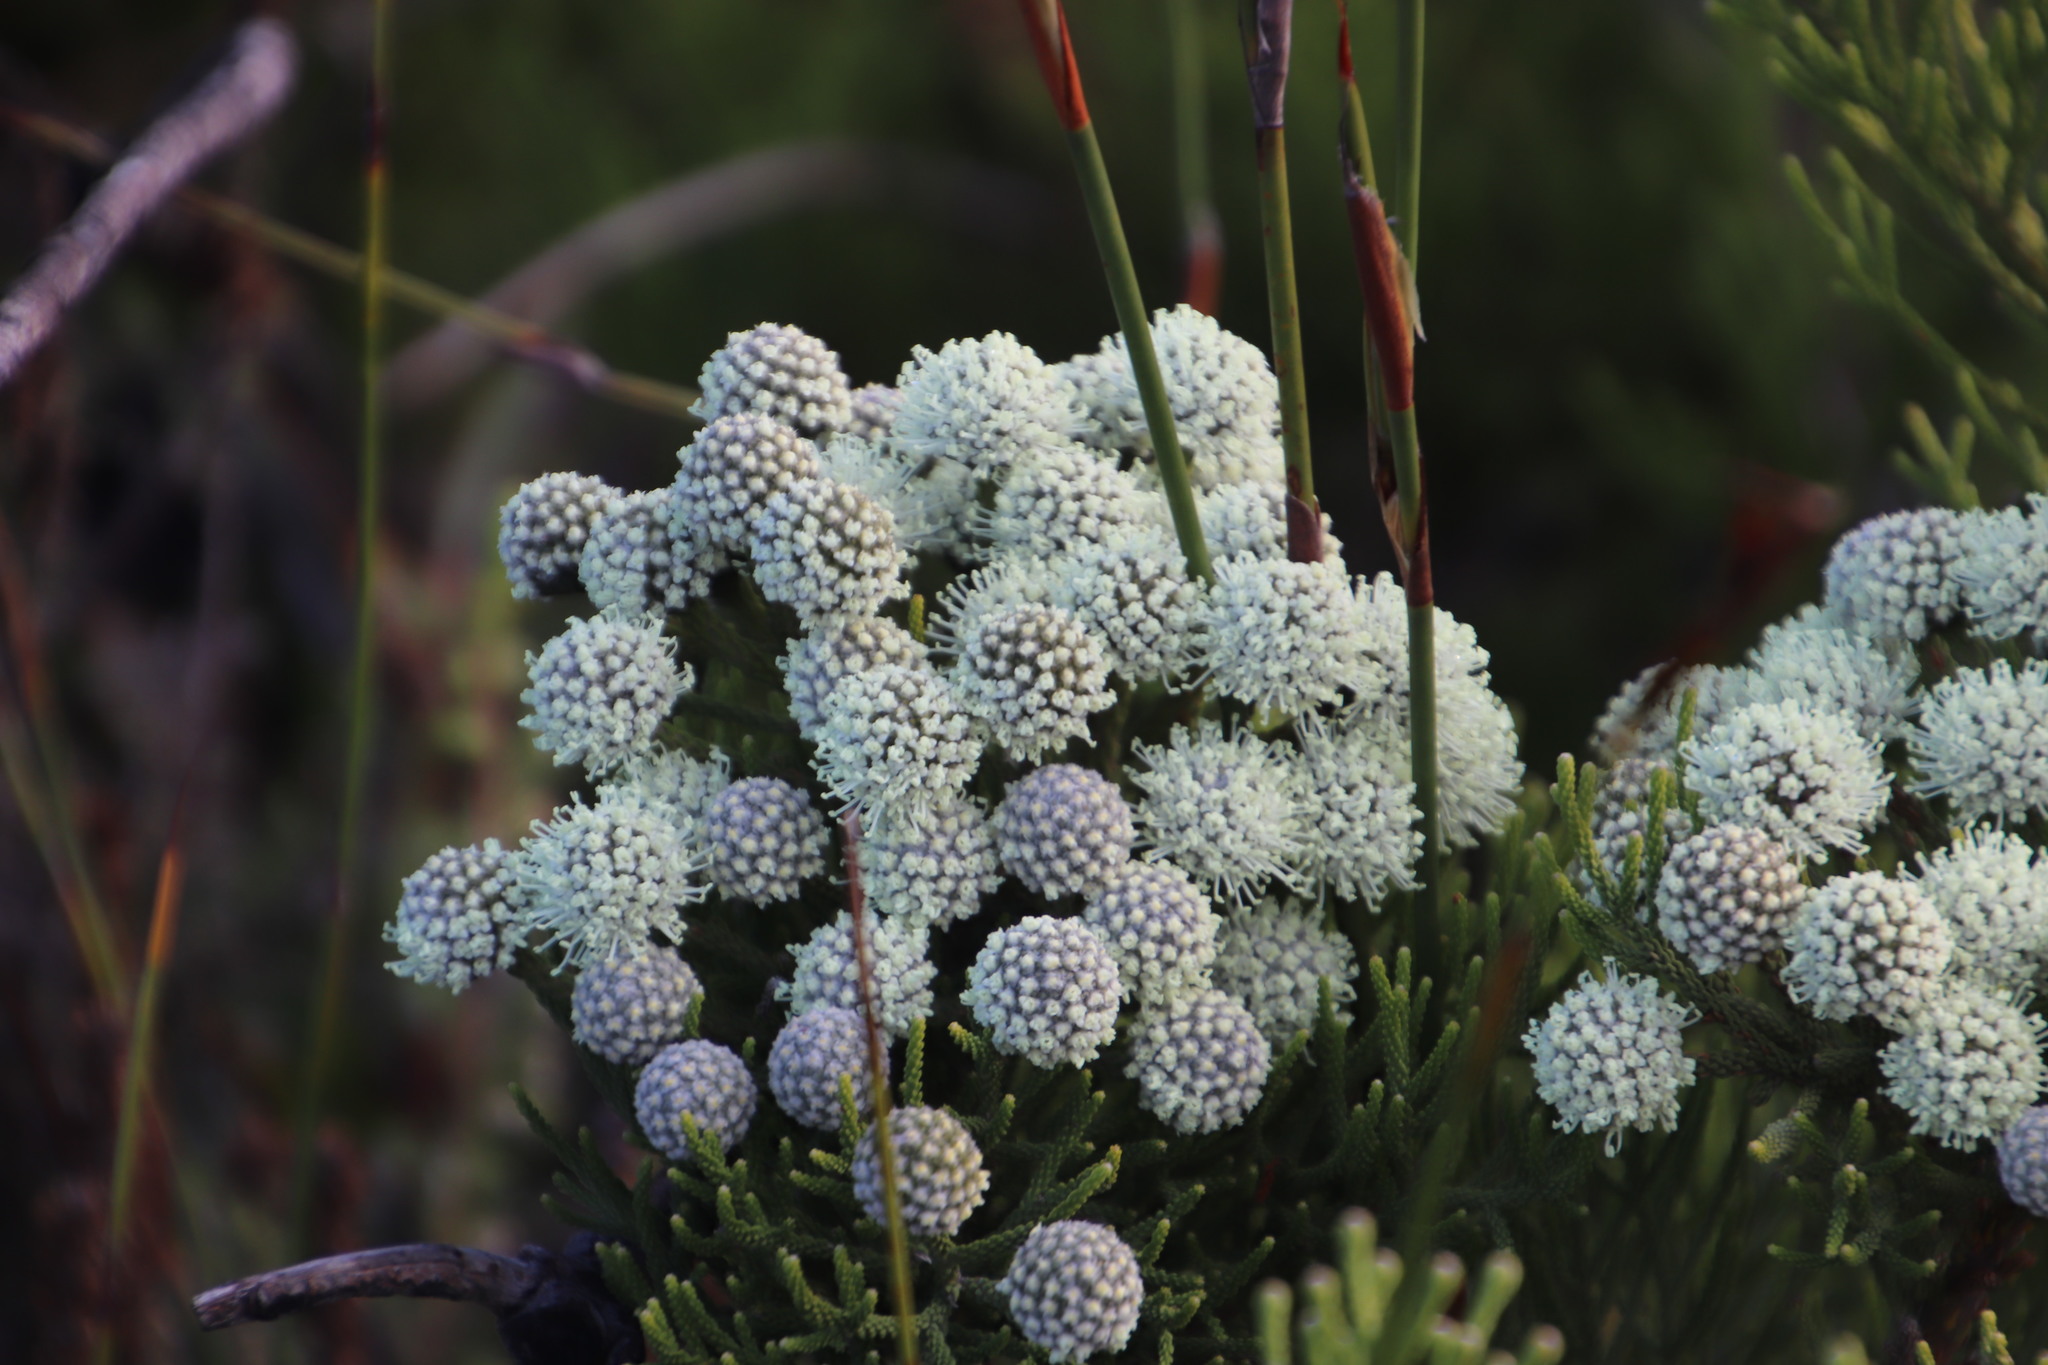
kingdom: Plantae
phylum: Tracheophyta
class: Magnoliopsida
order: Bruniales
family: Bruniaceae
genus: Brunia
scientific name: Brunia noduliflora
